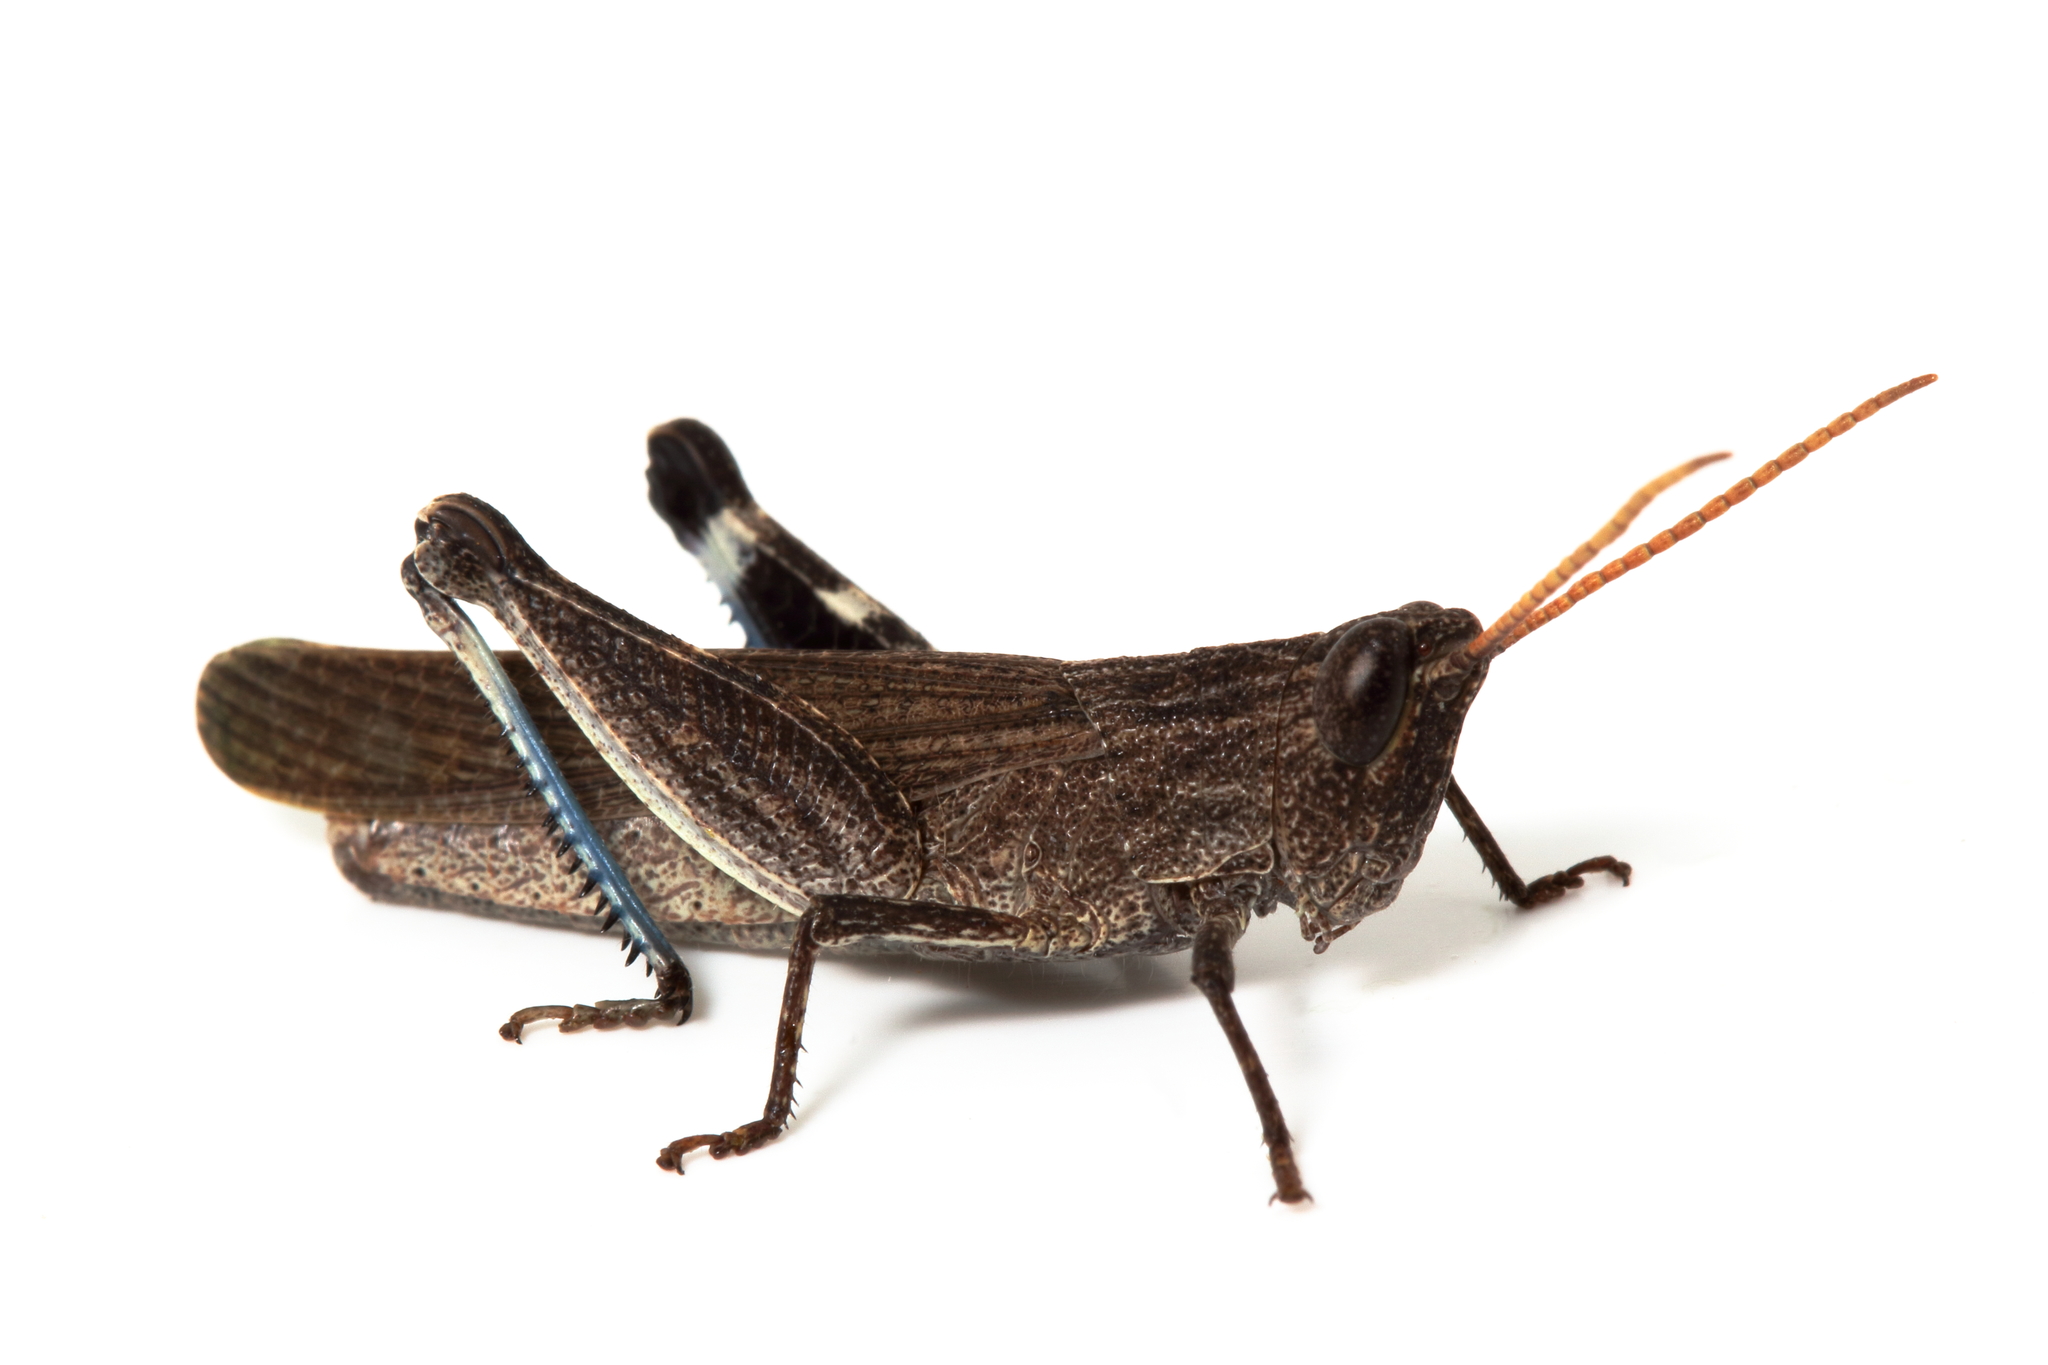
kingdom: Animalia
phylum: Arthropoda
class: Insecta
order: Orthoptera
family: Acrididae
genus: Goniaea
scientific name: Goniaea opomaloides
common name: Mimetic gumleaf grasshopper
